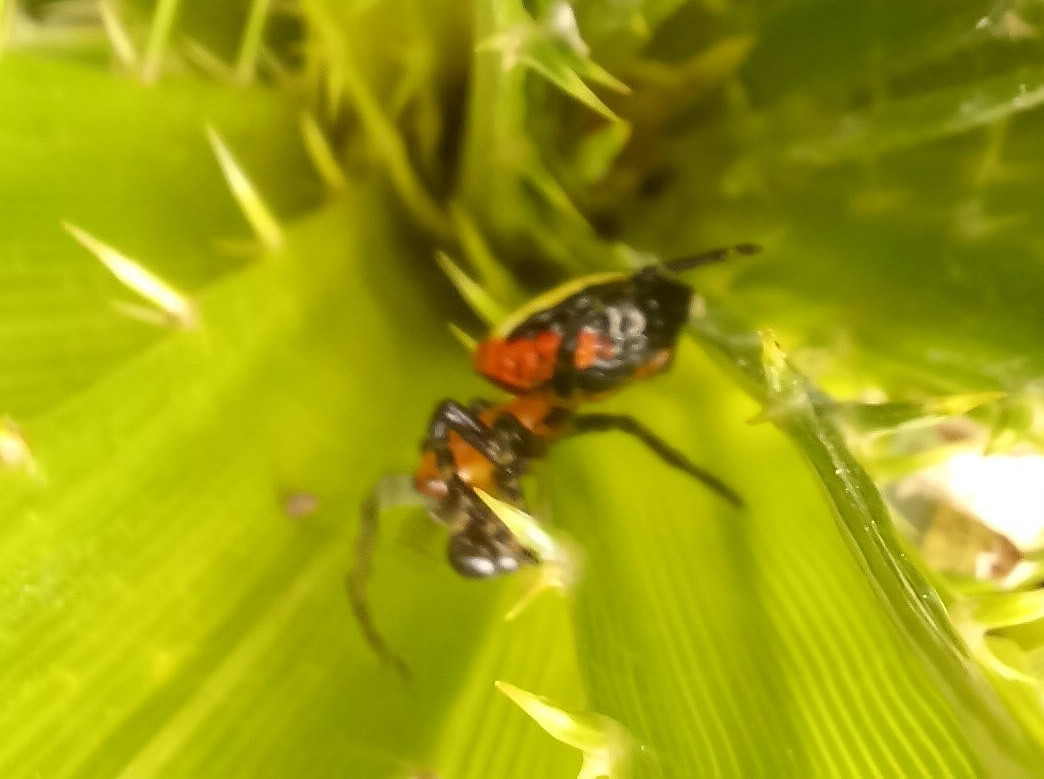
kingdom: Animalia
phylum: Arthropoda
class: Arachnida
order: Araneae
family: Araneidae
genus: Alpaida
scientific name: Alpaida quadrilorata
